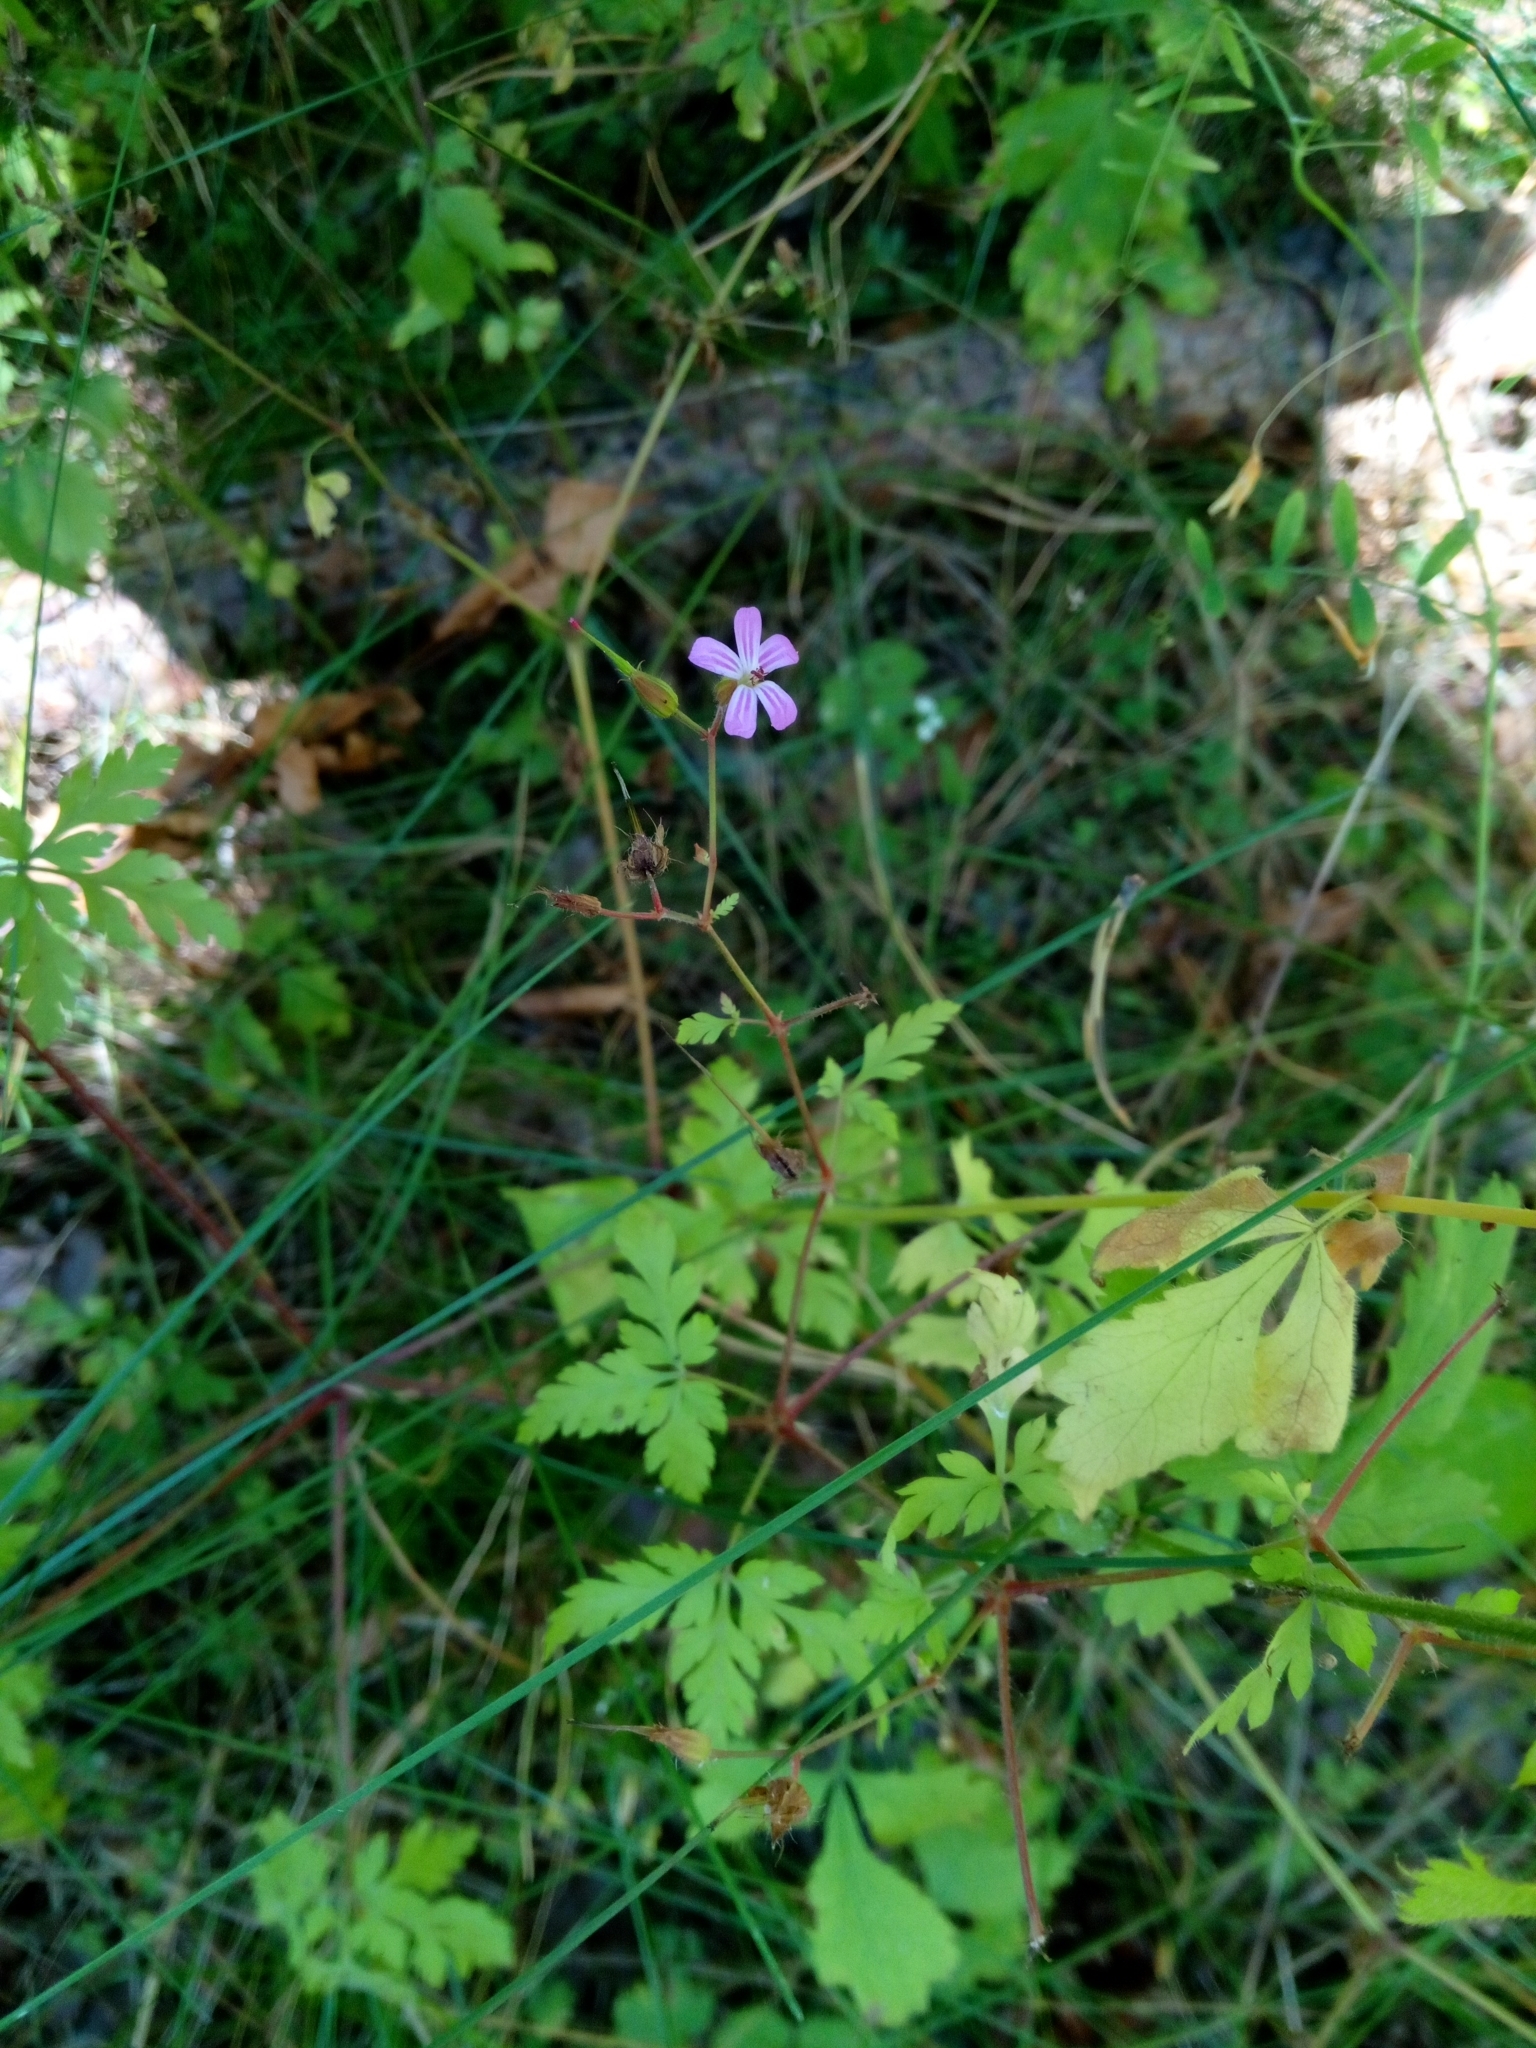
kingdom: Plantae
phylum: Tracheophyta
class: Magnoliopsida
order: Geraniales
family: Geraniaceae
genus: Geranium
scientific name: Geranium robertianum
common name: Herb-robert
